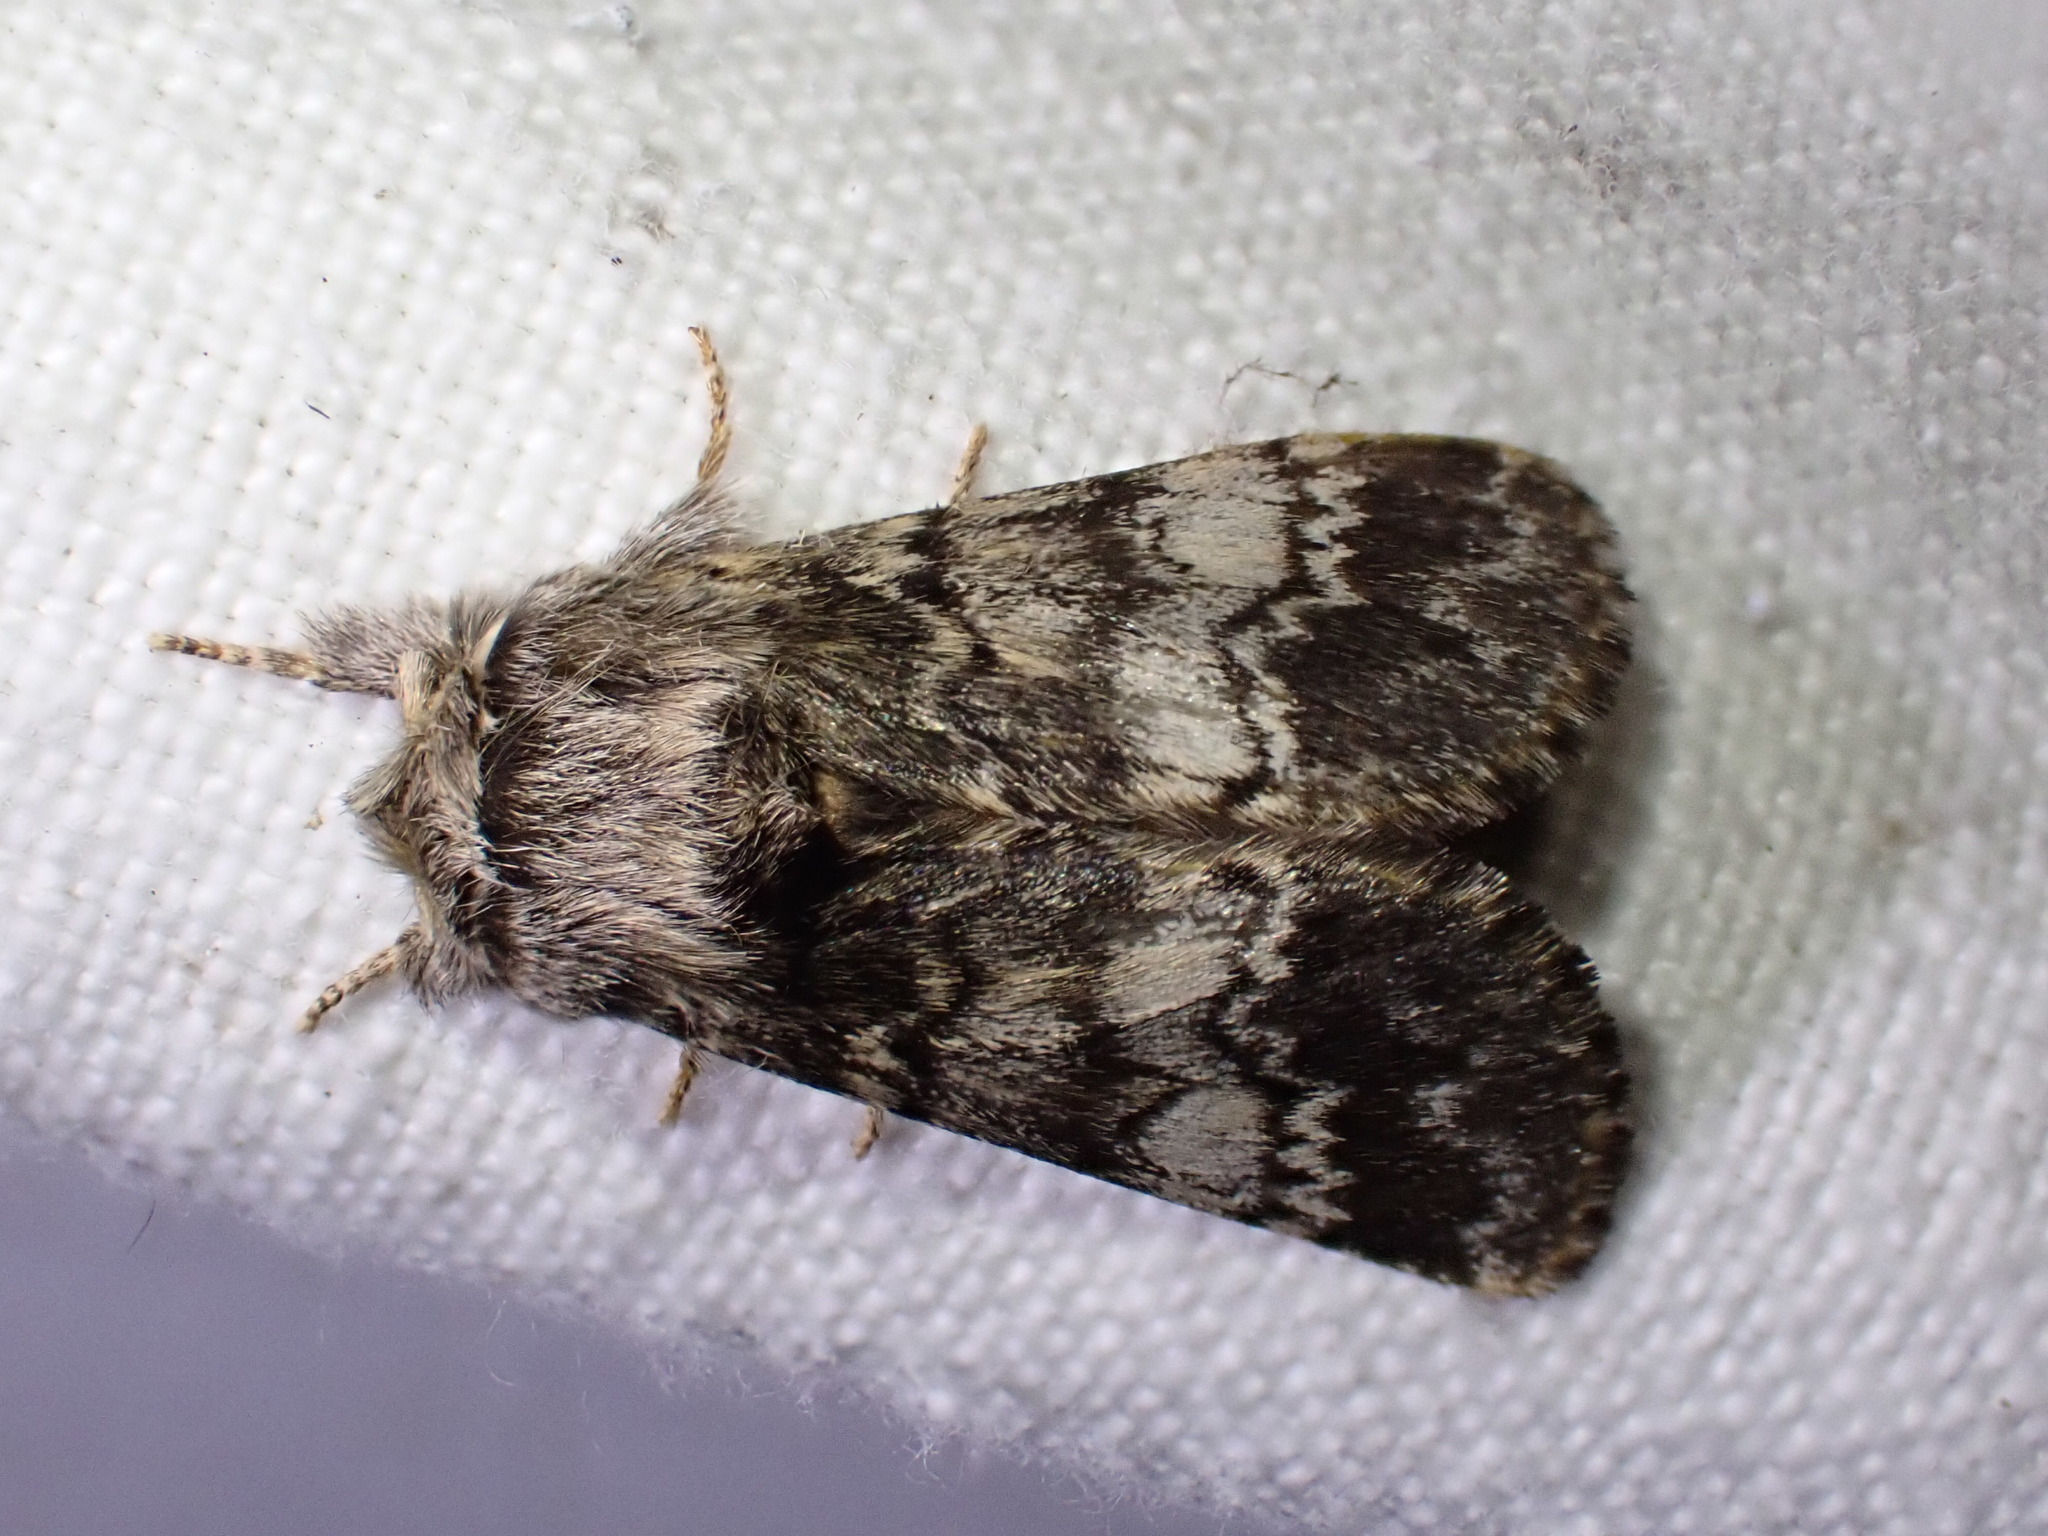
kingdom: Animalia
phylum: Arthropoda
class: Insecta
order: Lepidoptera
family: Notodontidae
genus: Drymonia
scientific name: Drymonia ruficornis
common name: Lunar marbled brown
